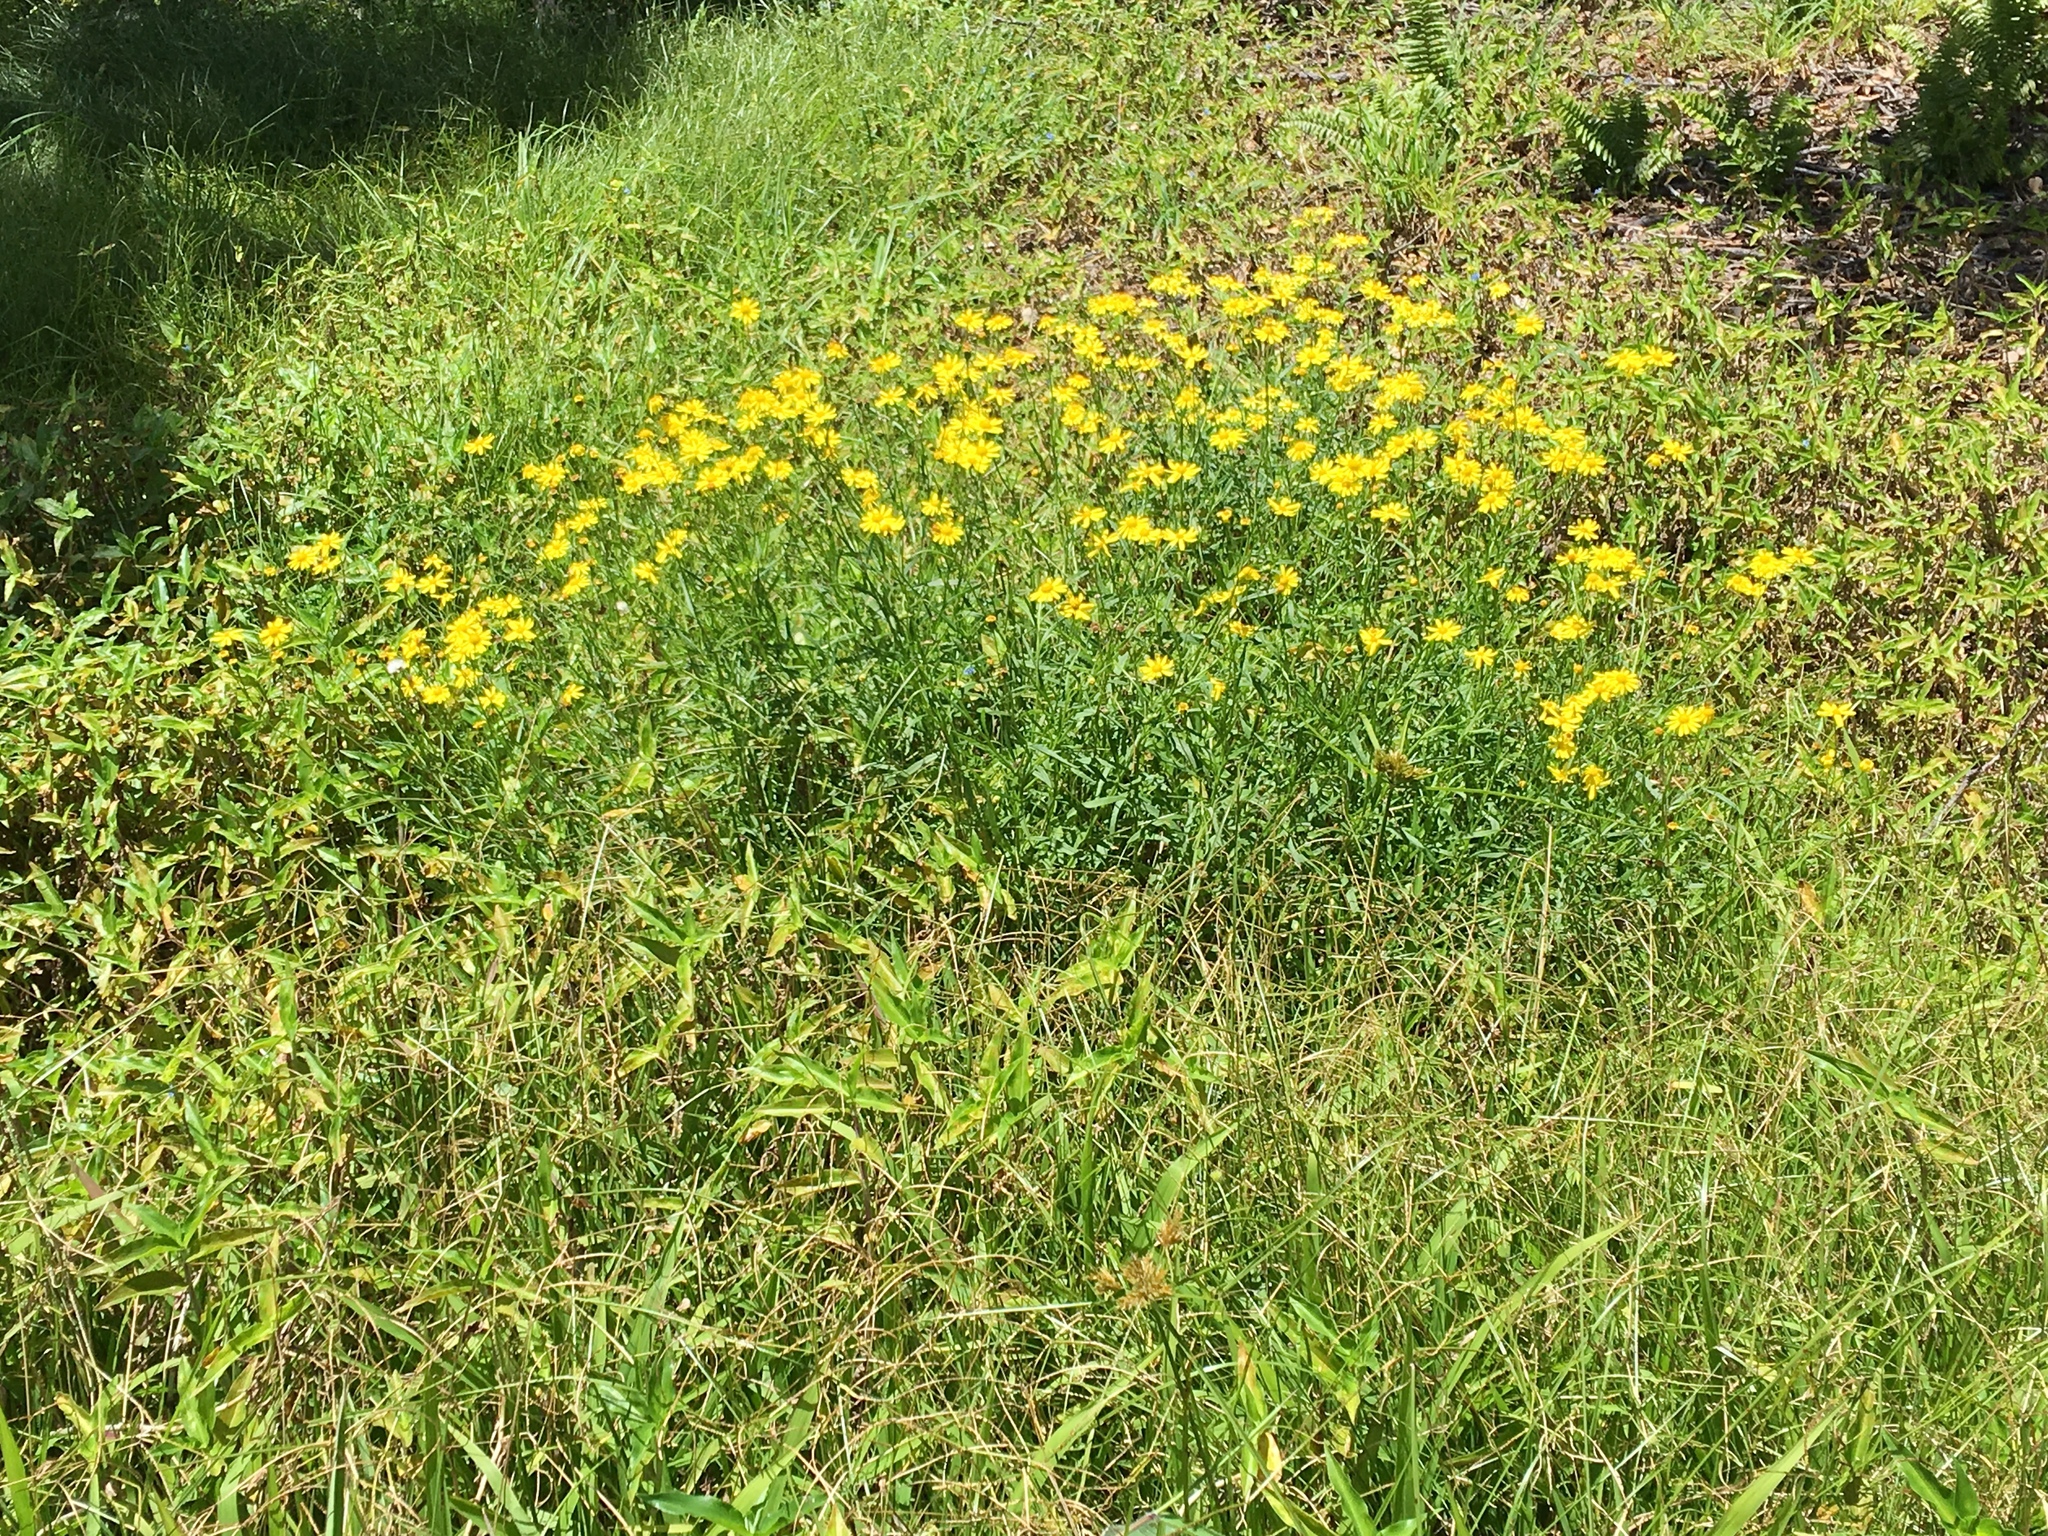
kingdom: Plantae
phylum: Tracheophyta
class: Magnoliopsida
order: Asterales
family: Asteraceae
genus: Senecio
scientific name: Senecio madagascariensis
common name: Madagascar ragwort
